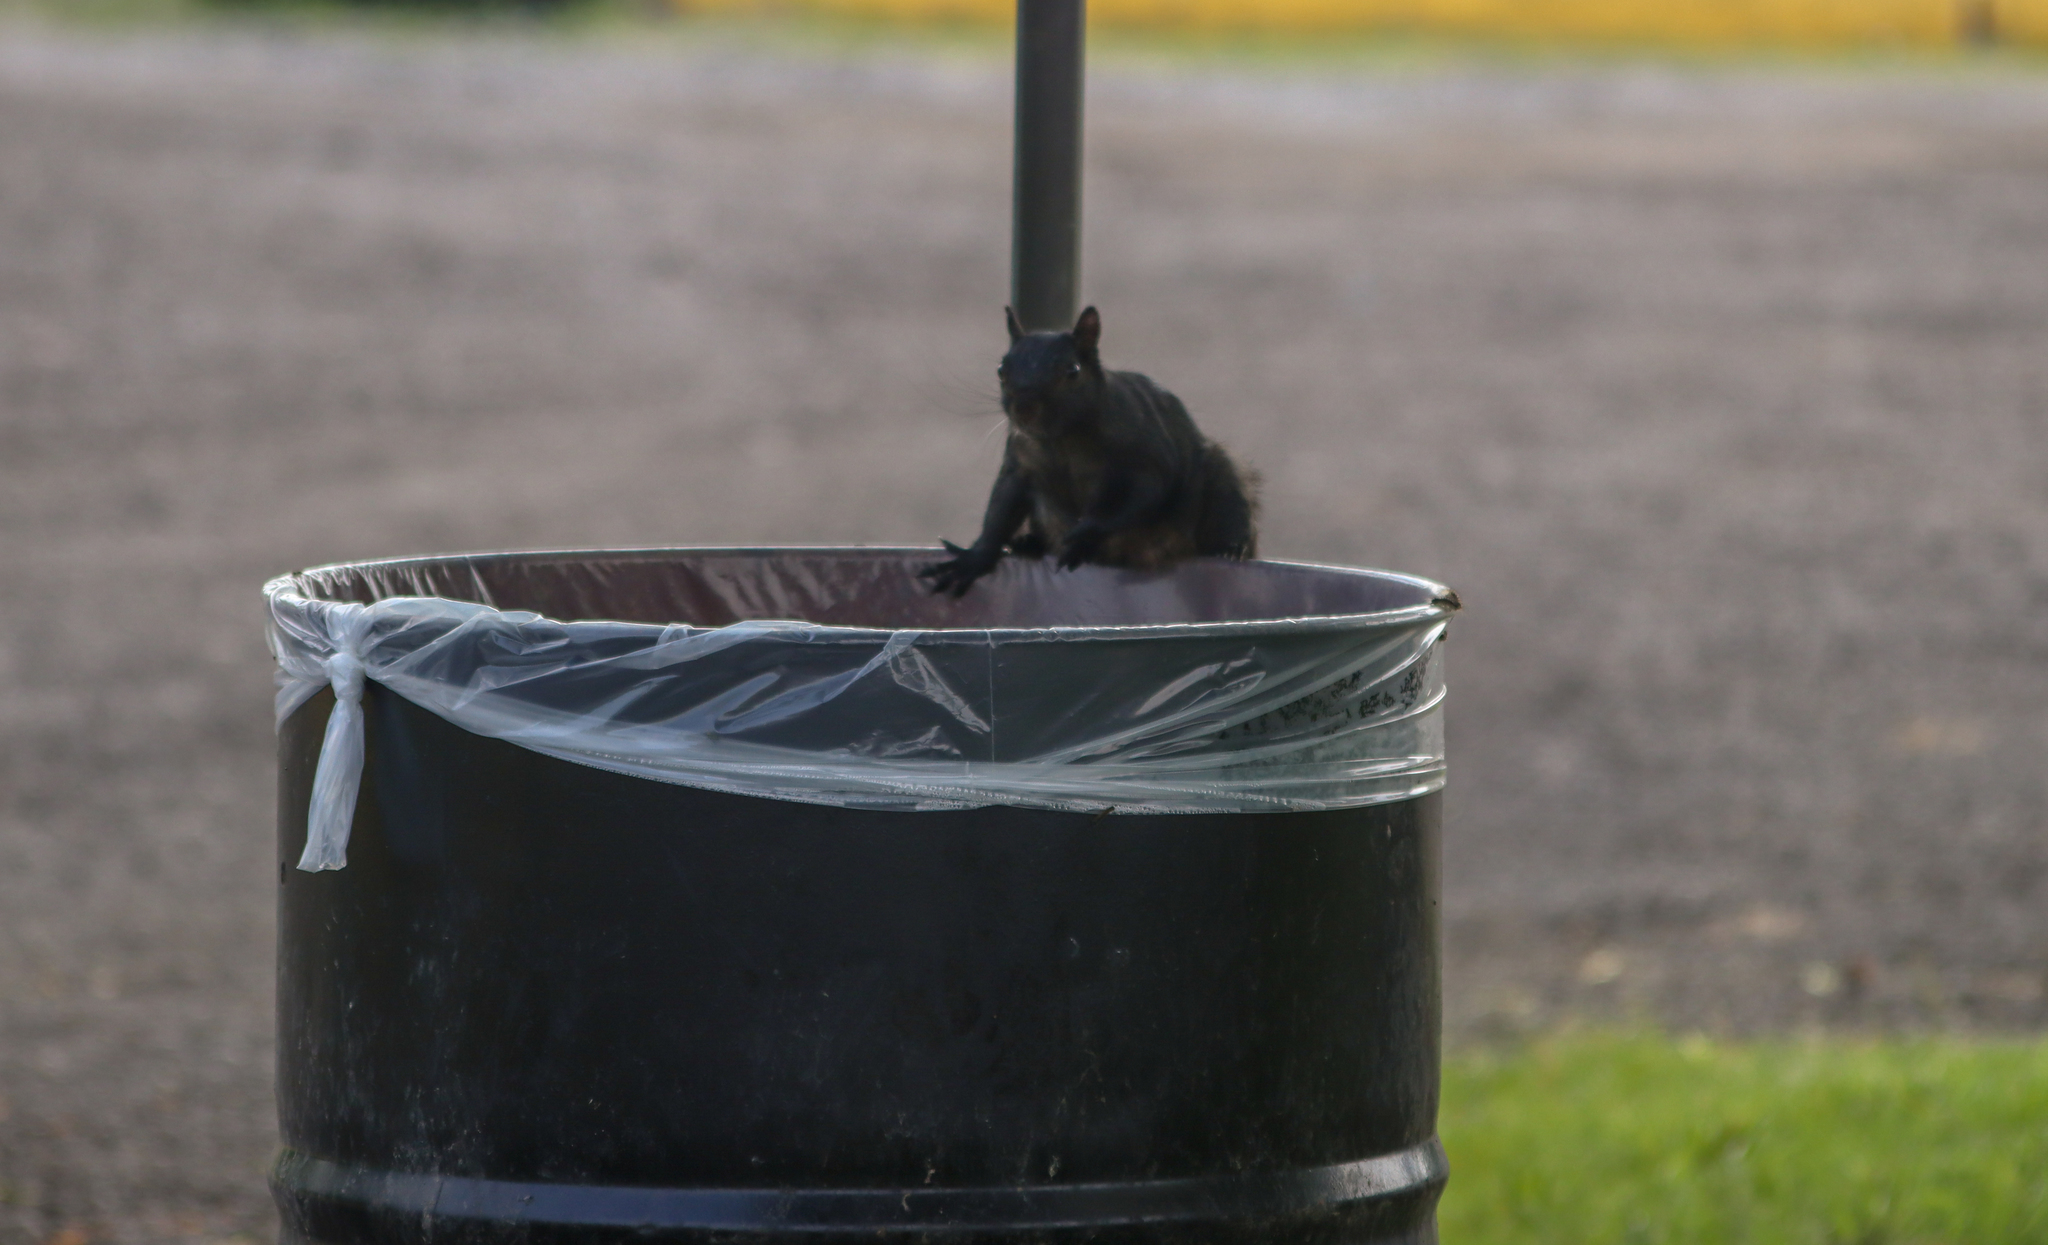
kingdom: Animalia
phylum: Chordata
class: Mammalia
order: Rodentia
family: Sciuridae
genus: Sciurus
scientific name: Sciurus carolinensis
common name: Eastern gray squirrel
